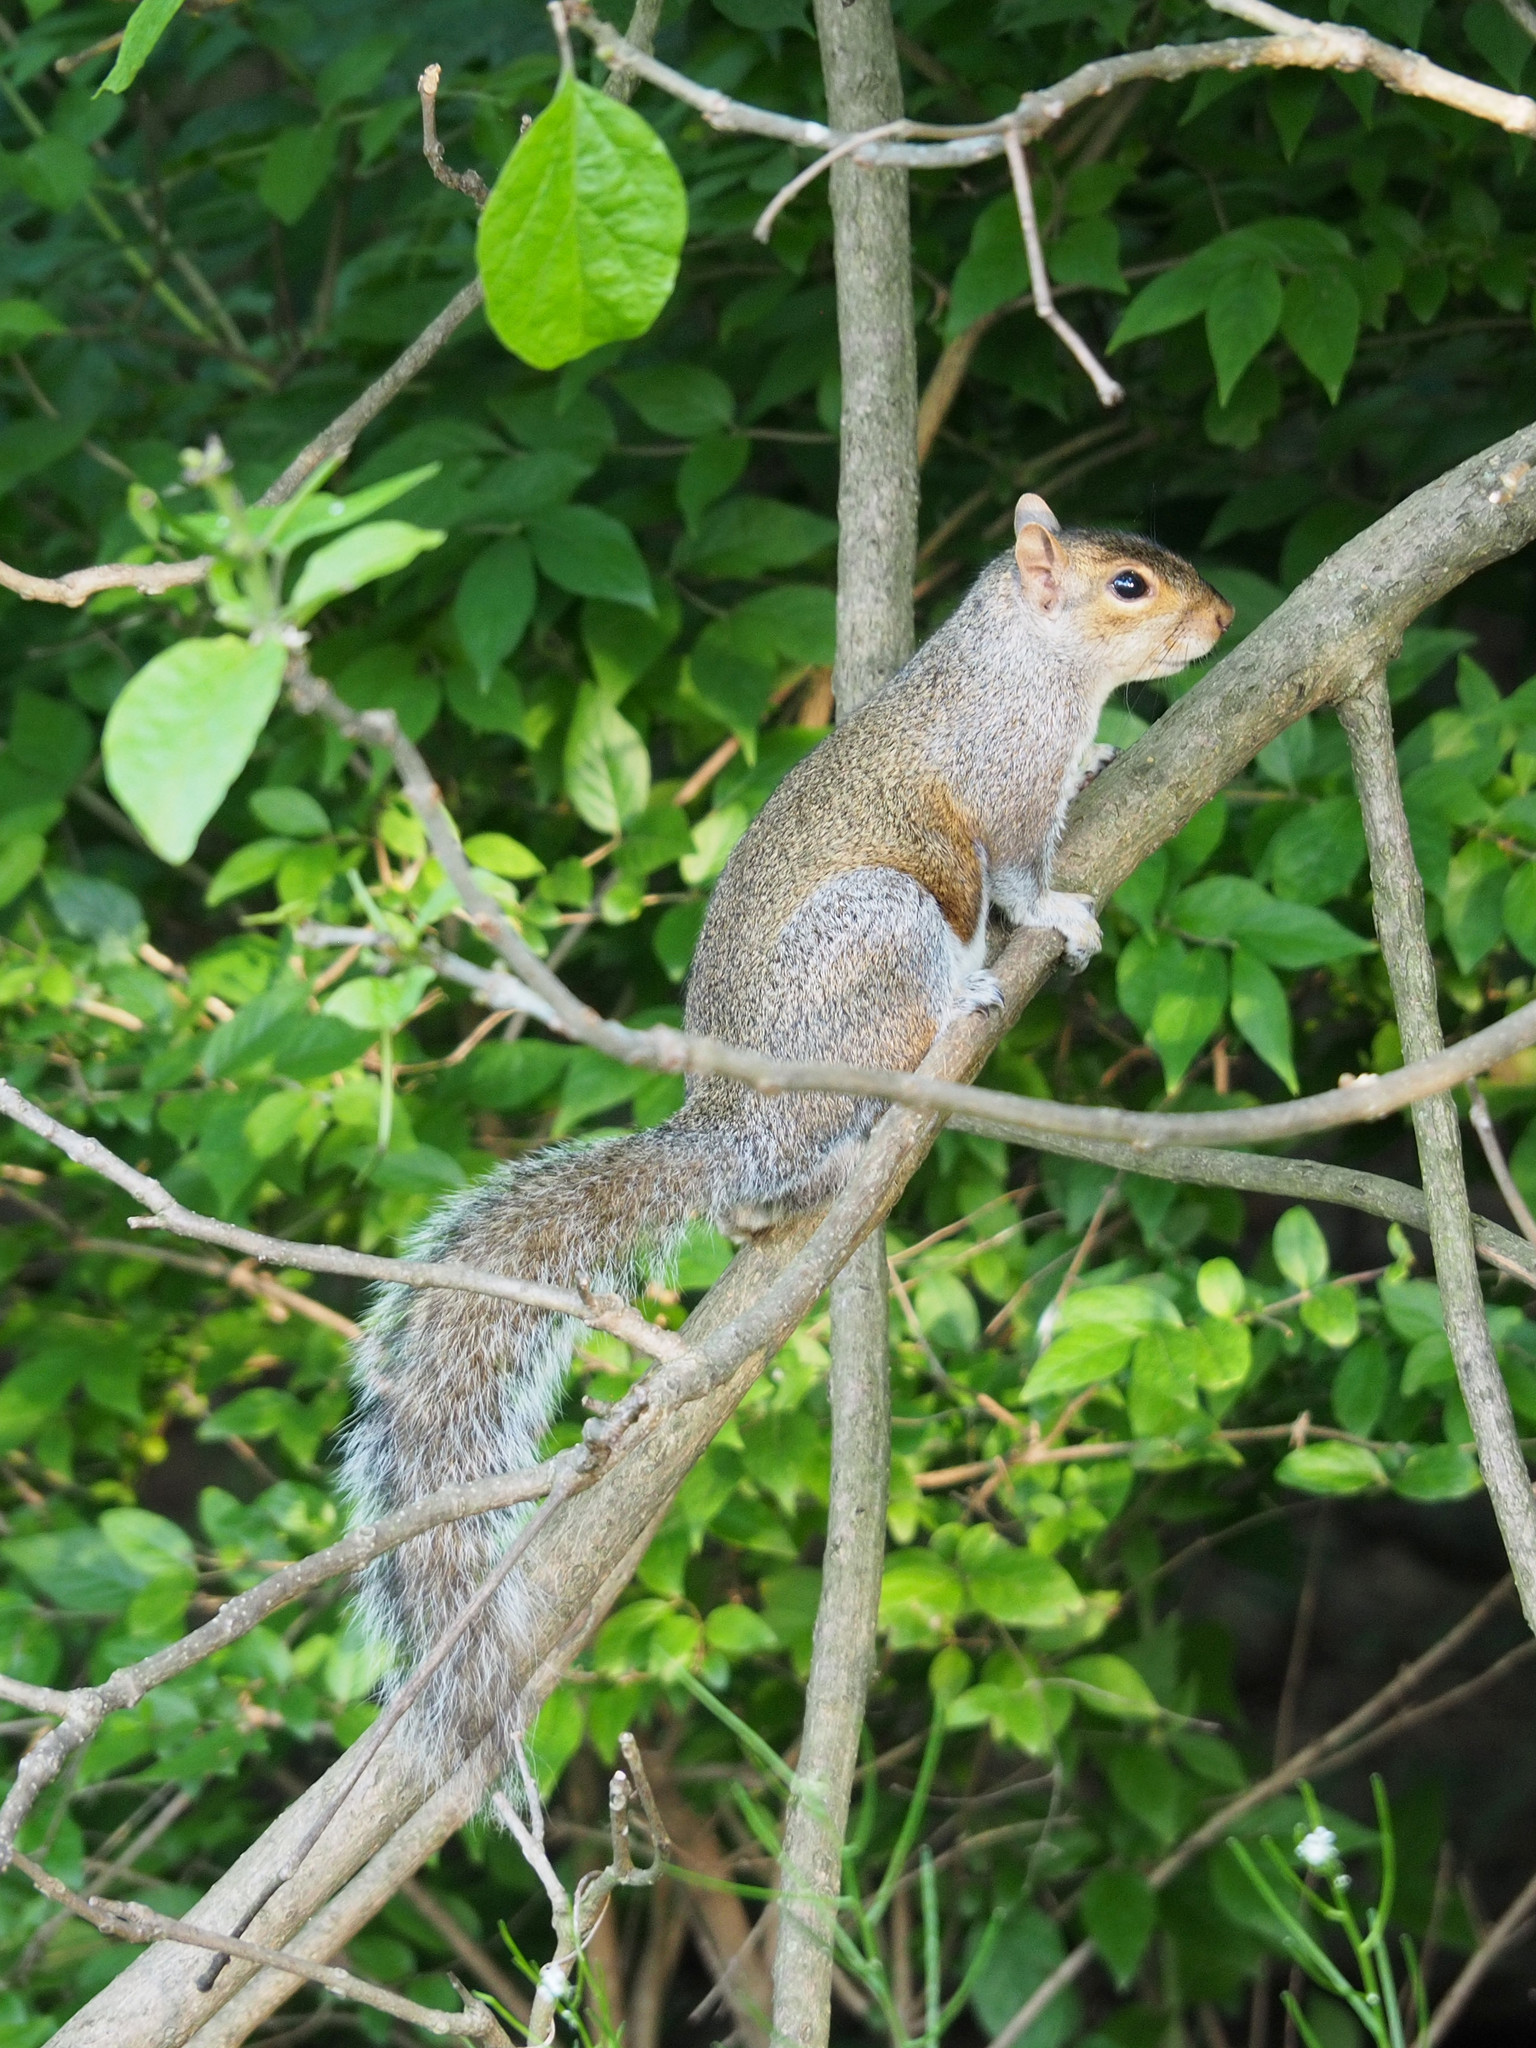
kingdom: Animalia
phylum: Chordata
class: Mammalia
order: Rodentia
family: Sciuridae
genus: Sciurus
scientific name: Sciurus carolinensis
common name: Eastern gray squirrel
